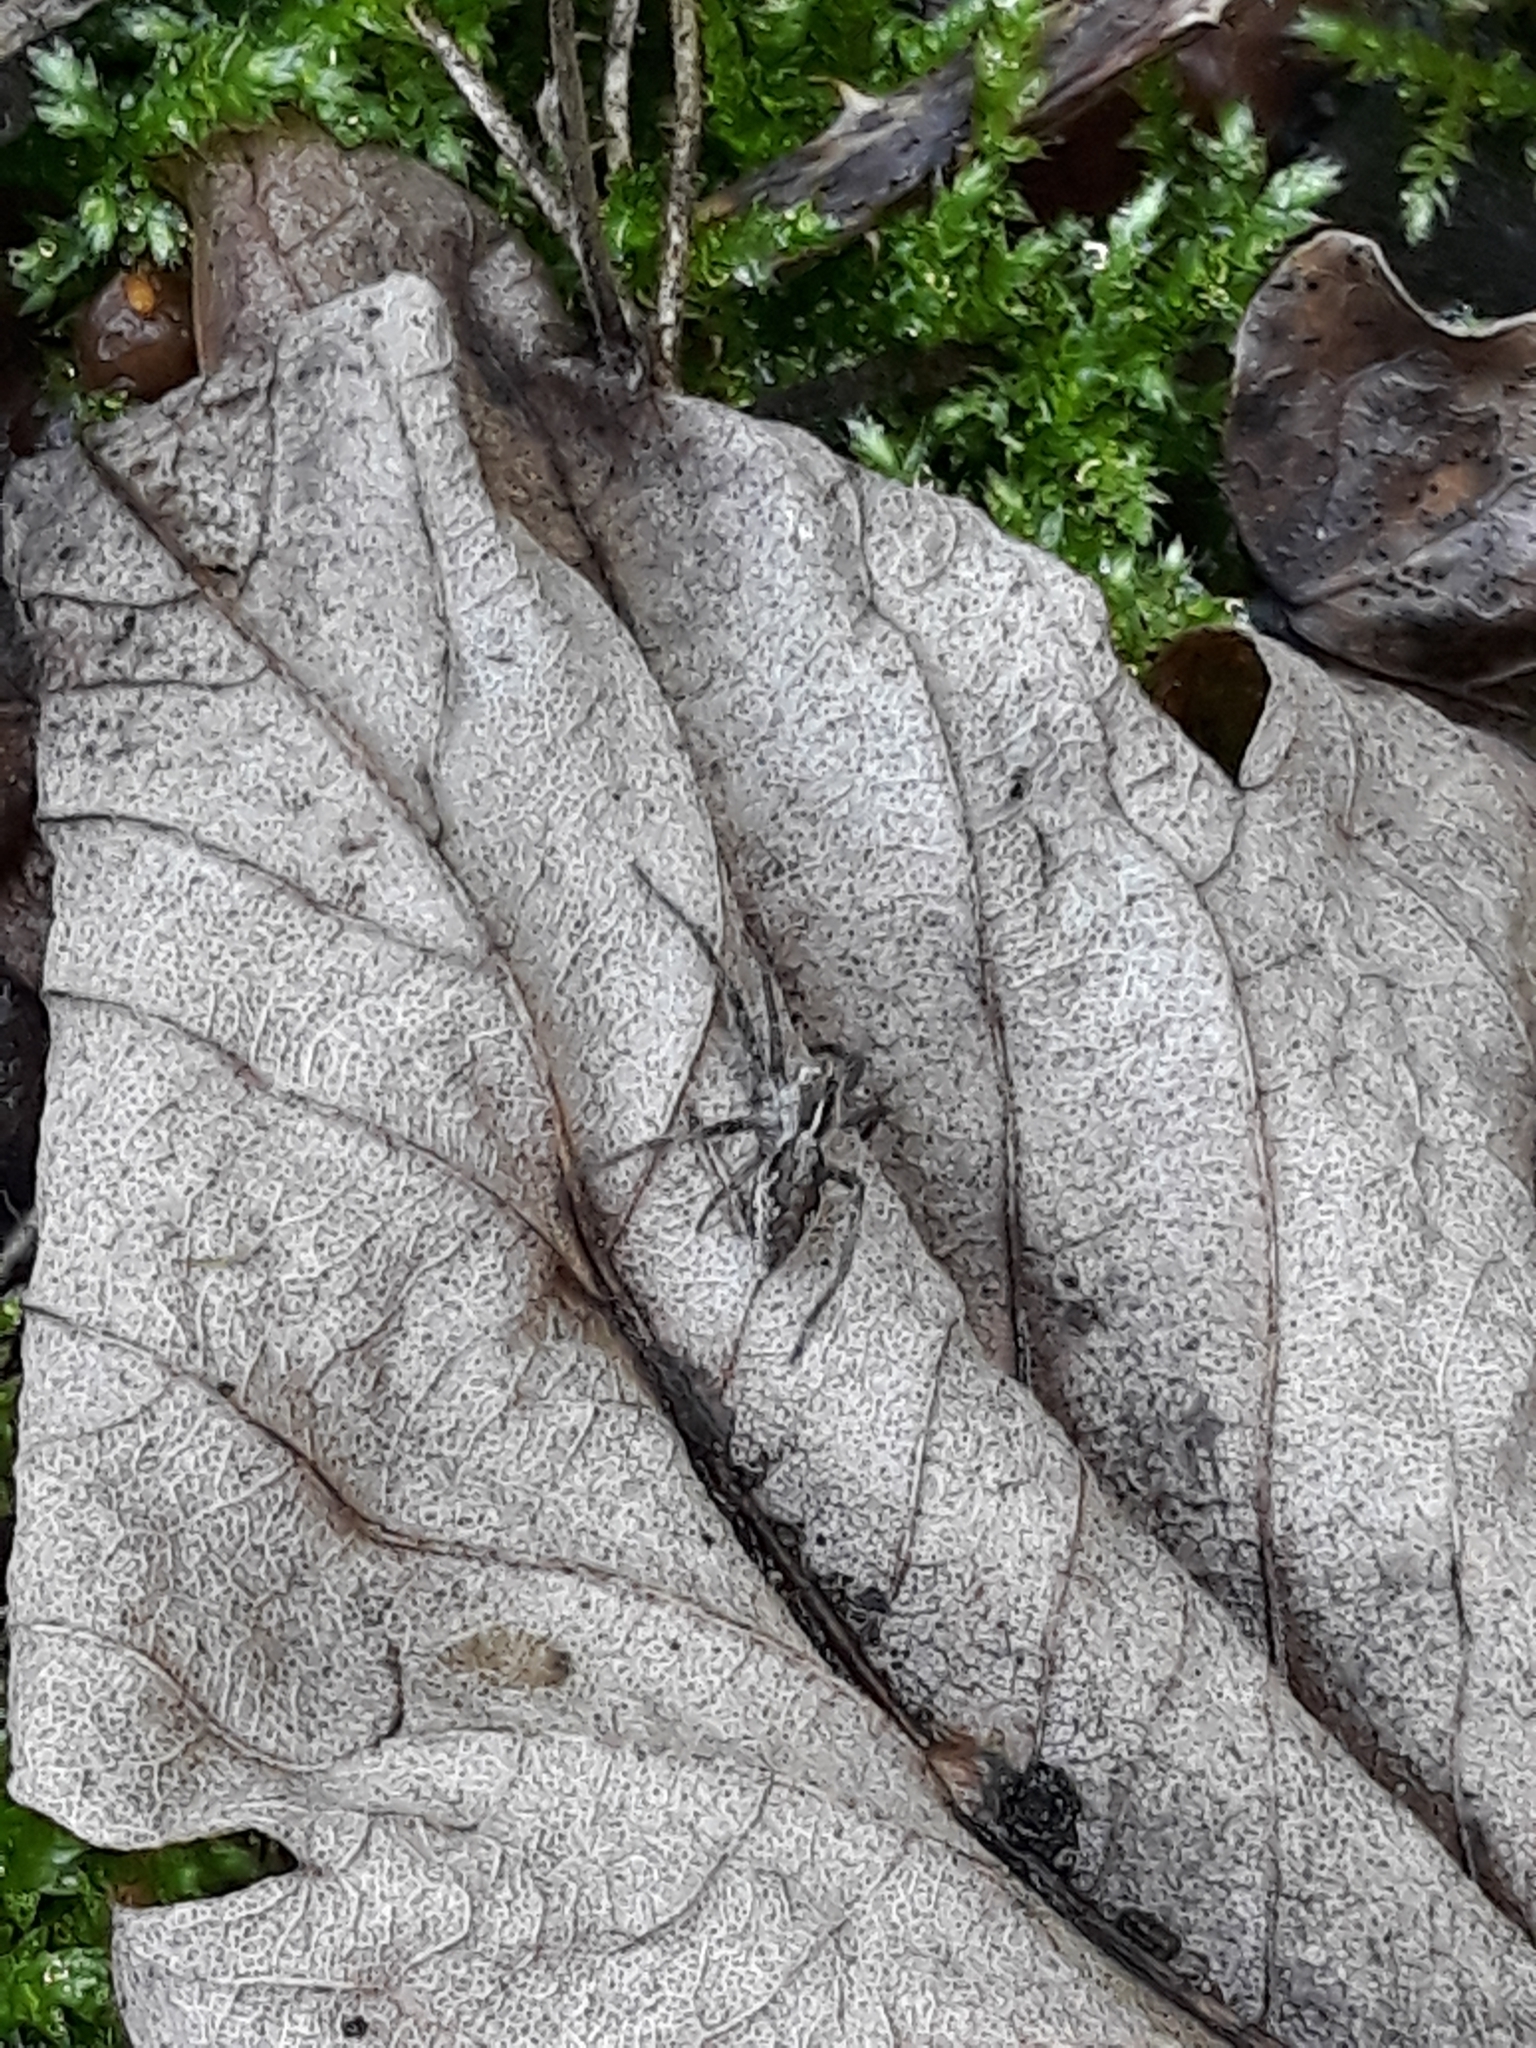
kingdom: Animalia
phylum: Arthropoda
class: Arachnida
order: Araneae
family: Pisauridae
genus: Pisaura
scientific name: Pisaura mirabilis
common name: Tent spider
